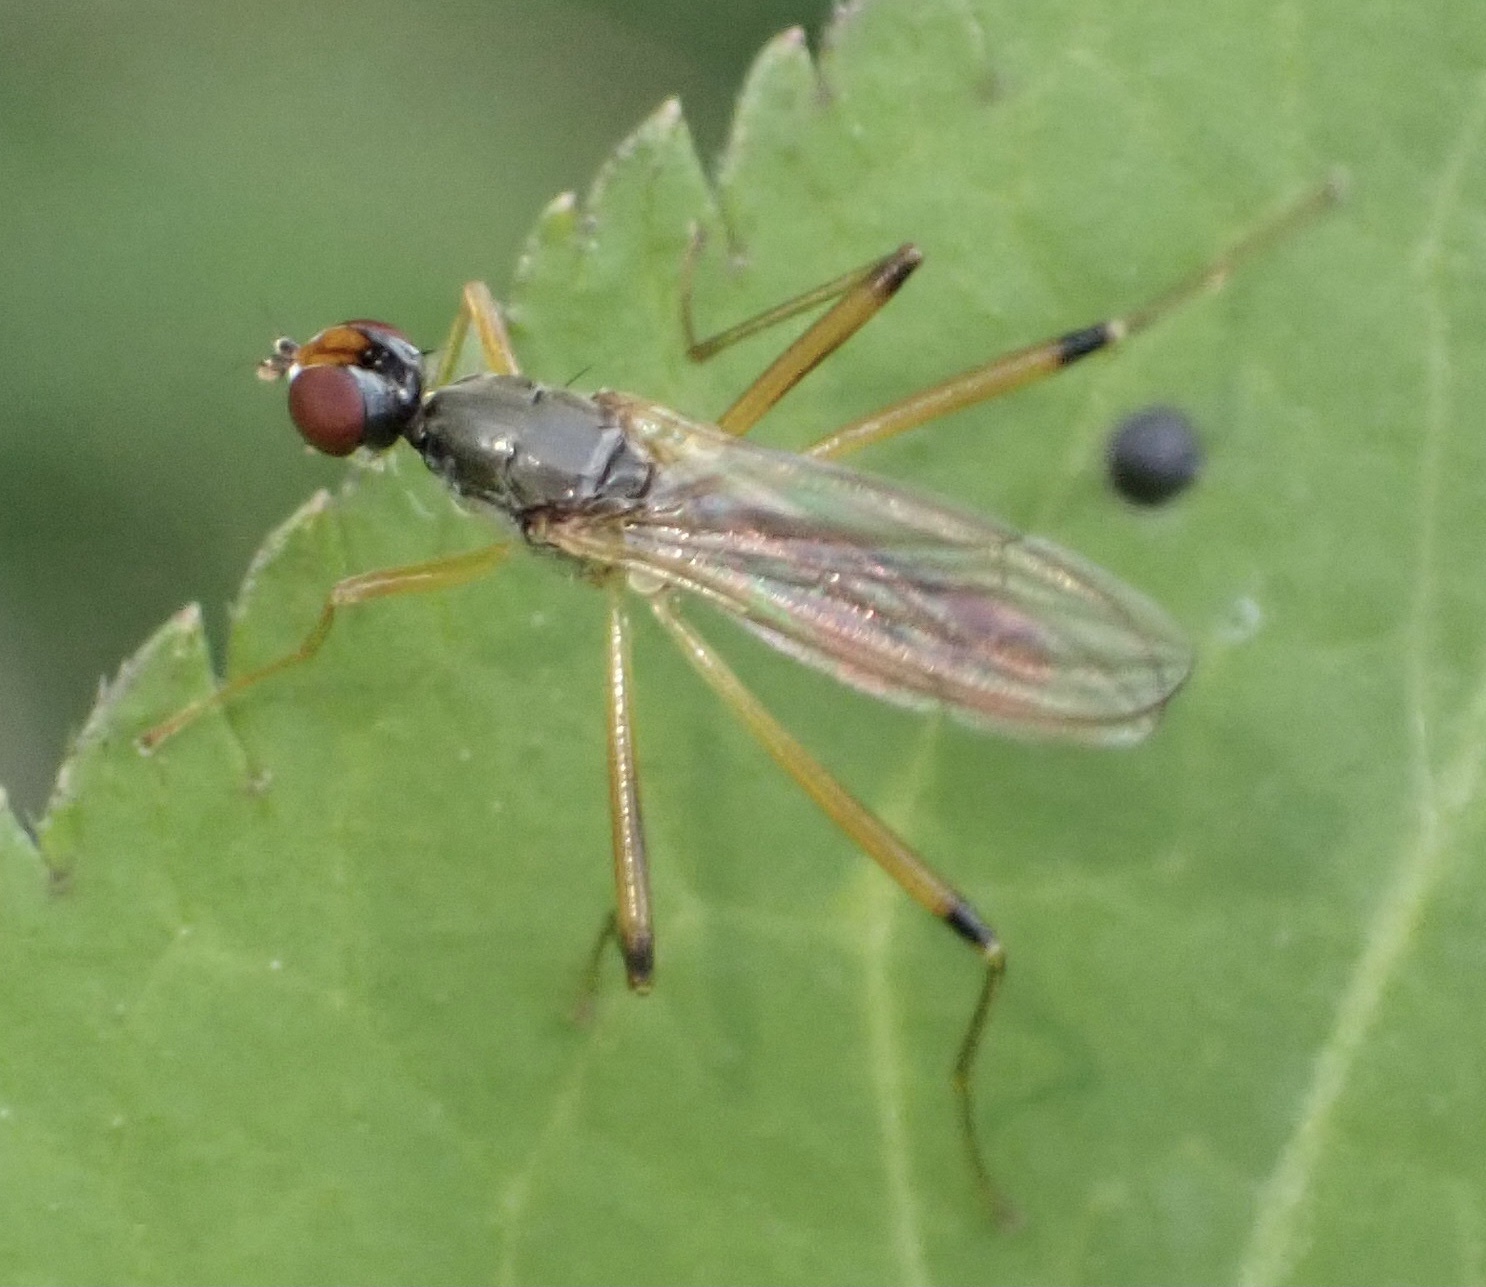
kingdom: Animalia
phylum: Arthropoda
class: Insecta
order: Diptera
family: Micropezidae
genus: Compsobata
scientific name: Compsobata cibaria
